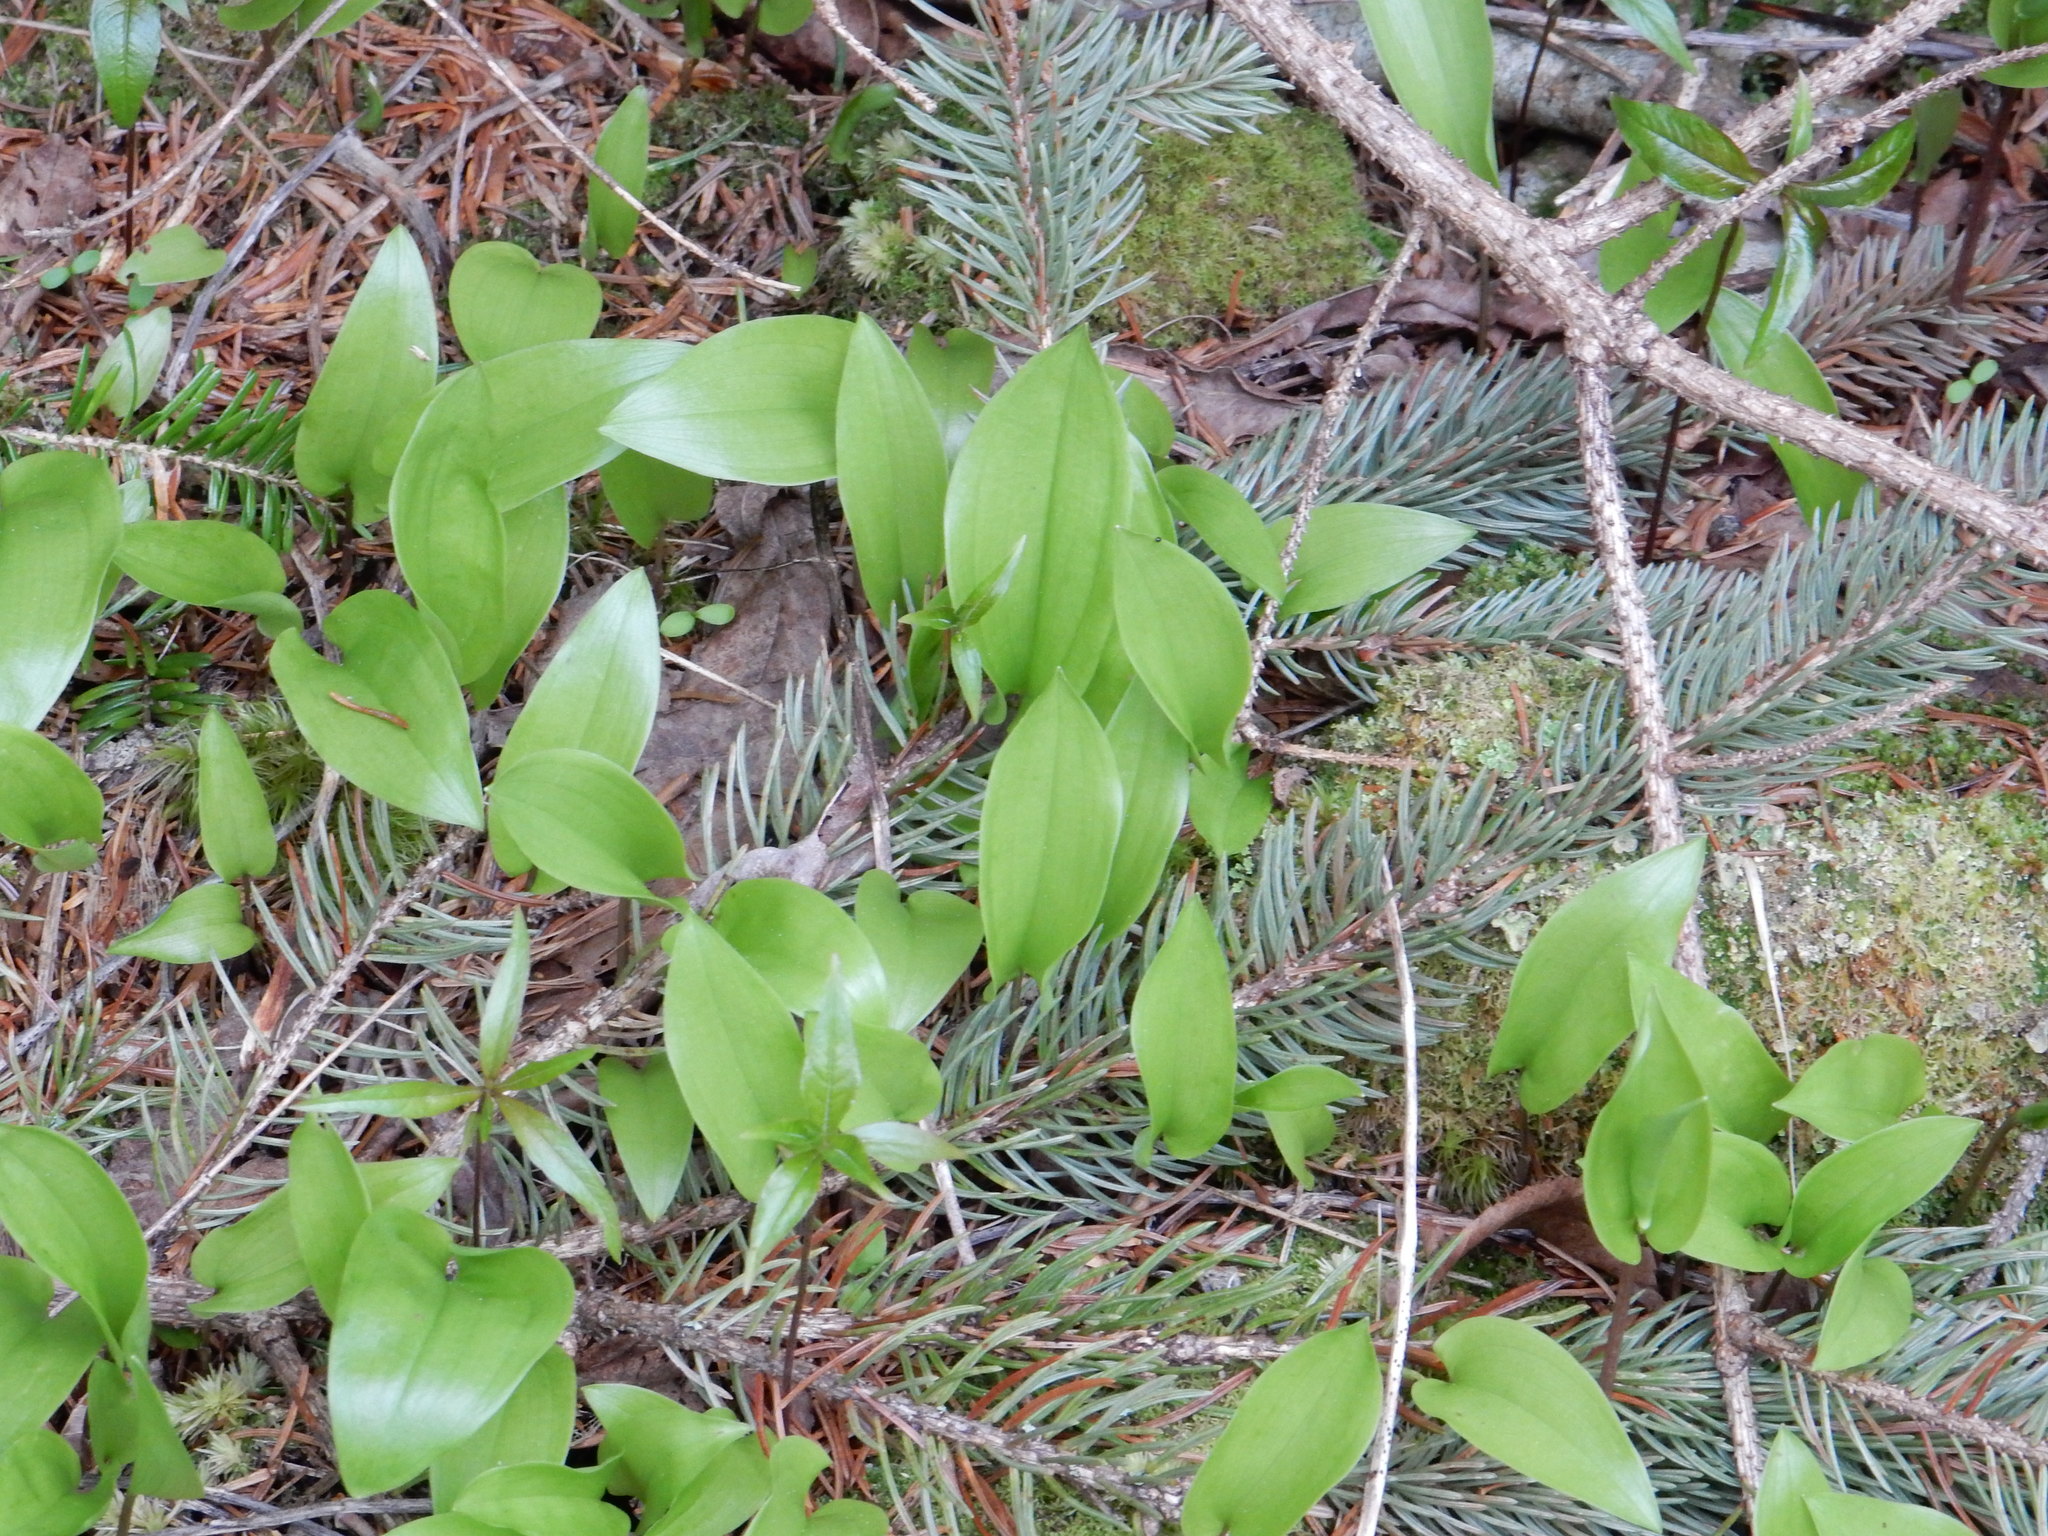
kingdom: Plantae
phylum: Tracheophyta
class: Liliopsida
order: Asparagales
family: Asparagaceae
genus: Maianthemum
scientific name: Maianthemum canadense
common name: False lily-of-the-valley
